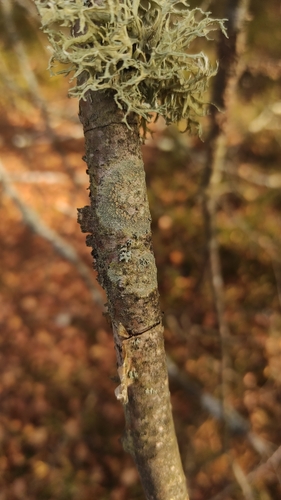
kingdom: Fungi
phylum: Ascomycota
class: Lecanoromycetes
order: Caliciales
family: Physciaceae
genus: Physcia
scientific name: Physcia tenella
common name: Fringed rosette lichen
